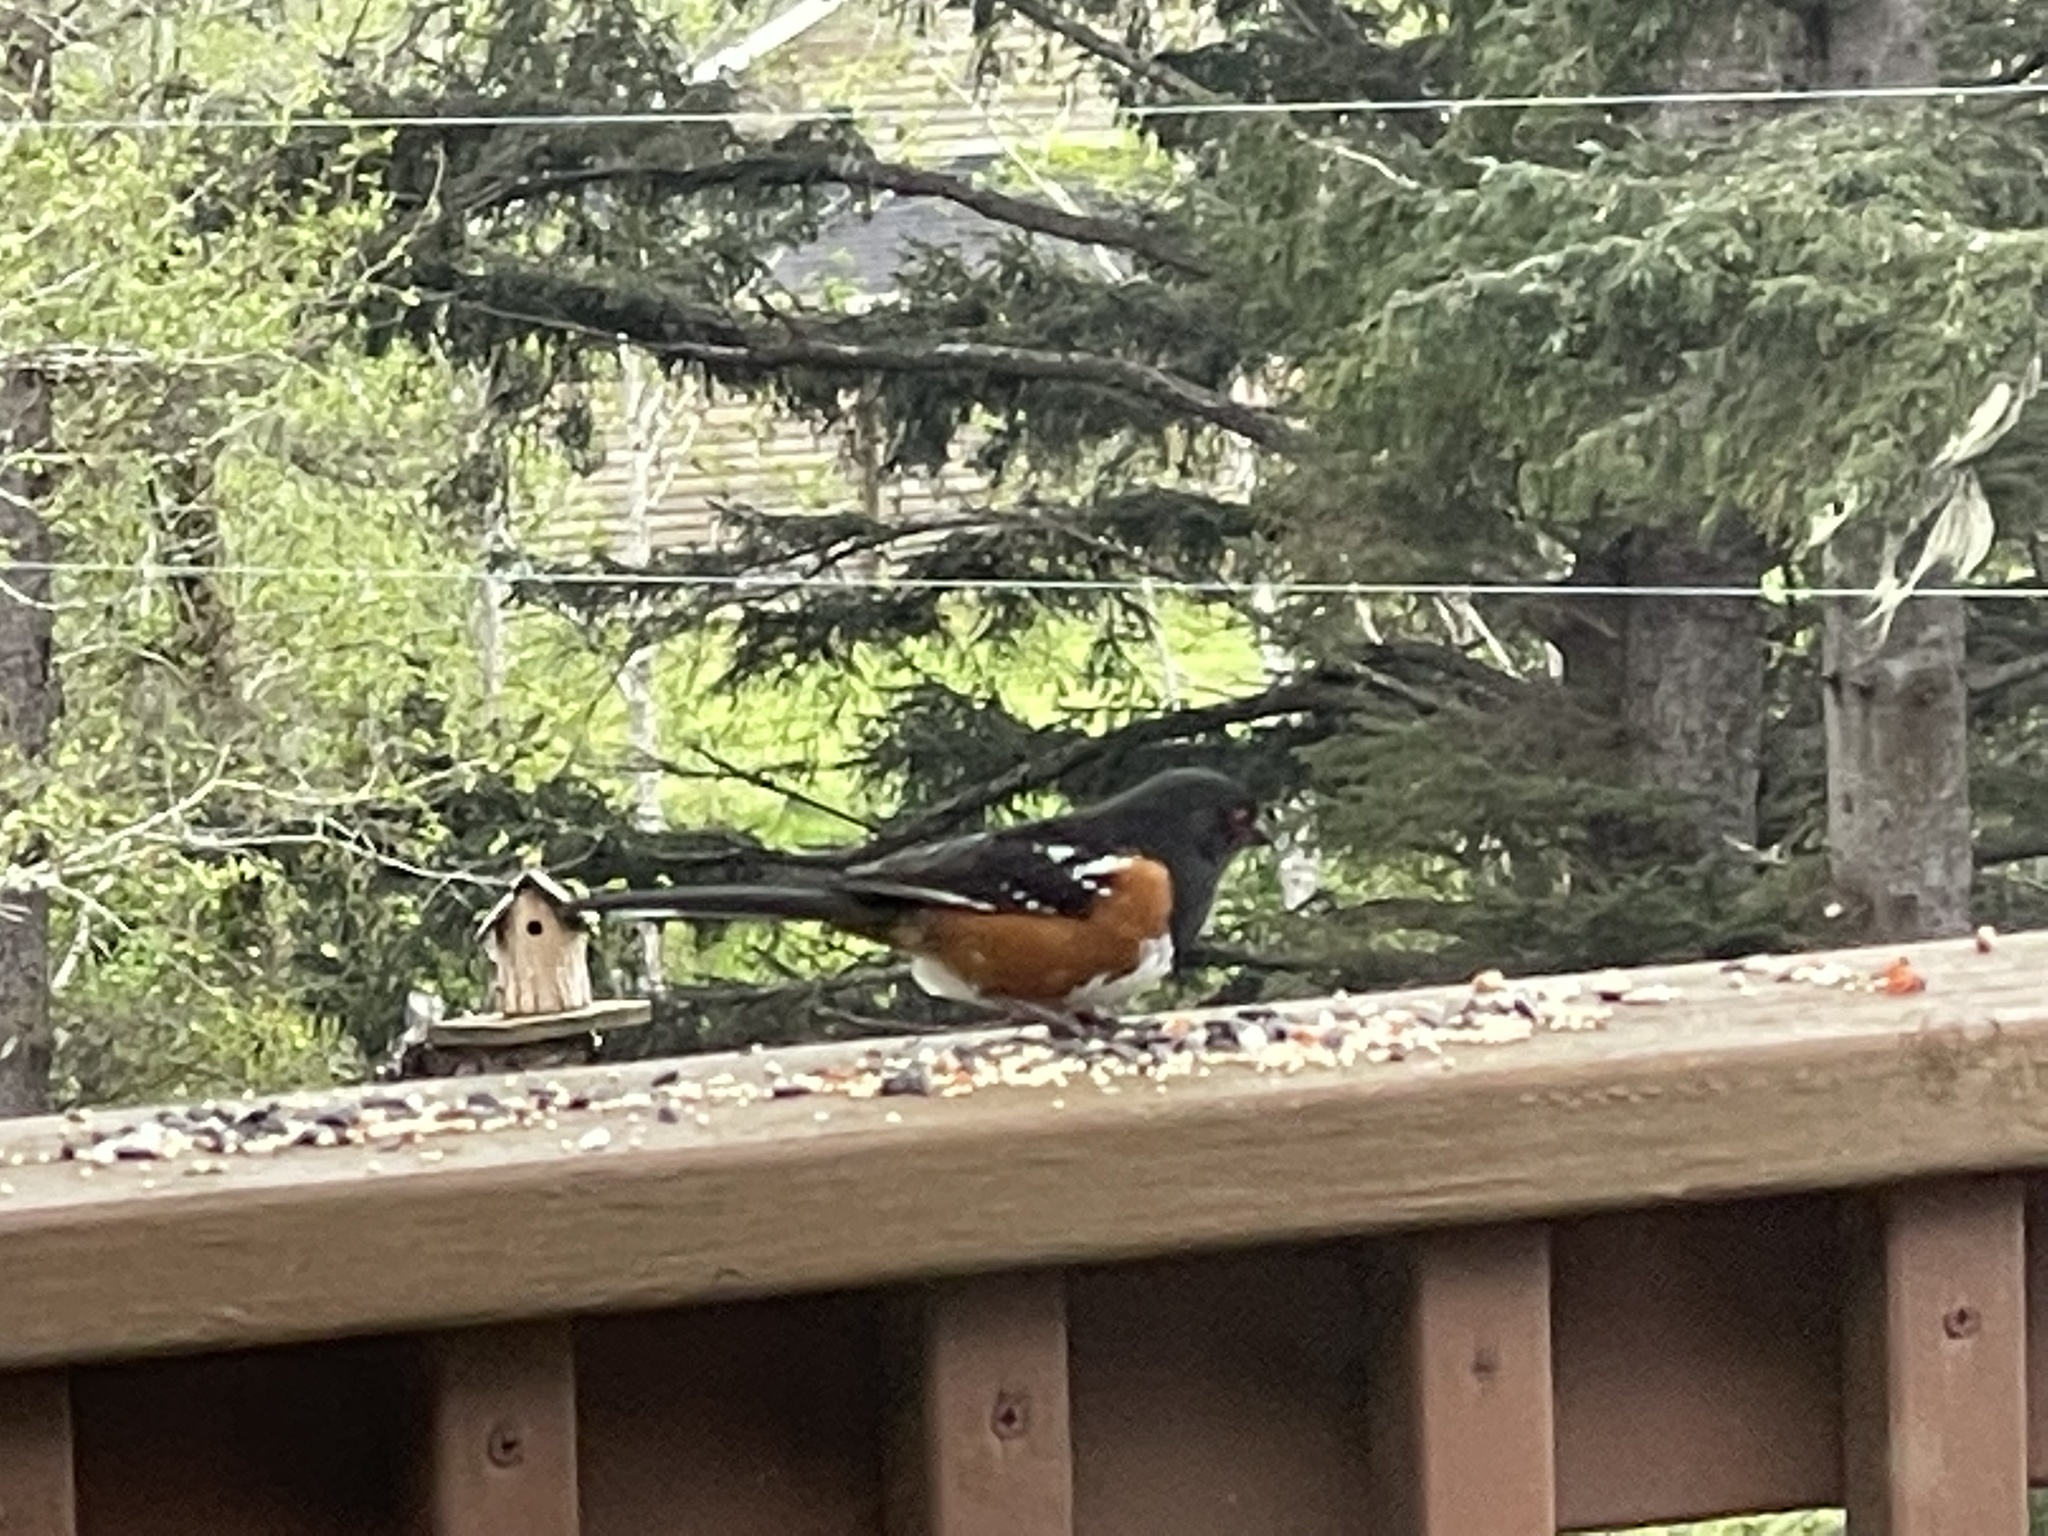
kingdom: Animalia
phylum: Chordata
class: Aves
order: Passeriformes
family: Passerellidae
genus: Pipilo
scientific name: Pipilo maculatus
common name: Spotted towhee
